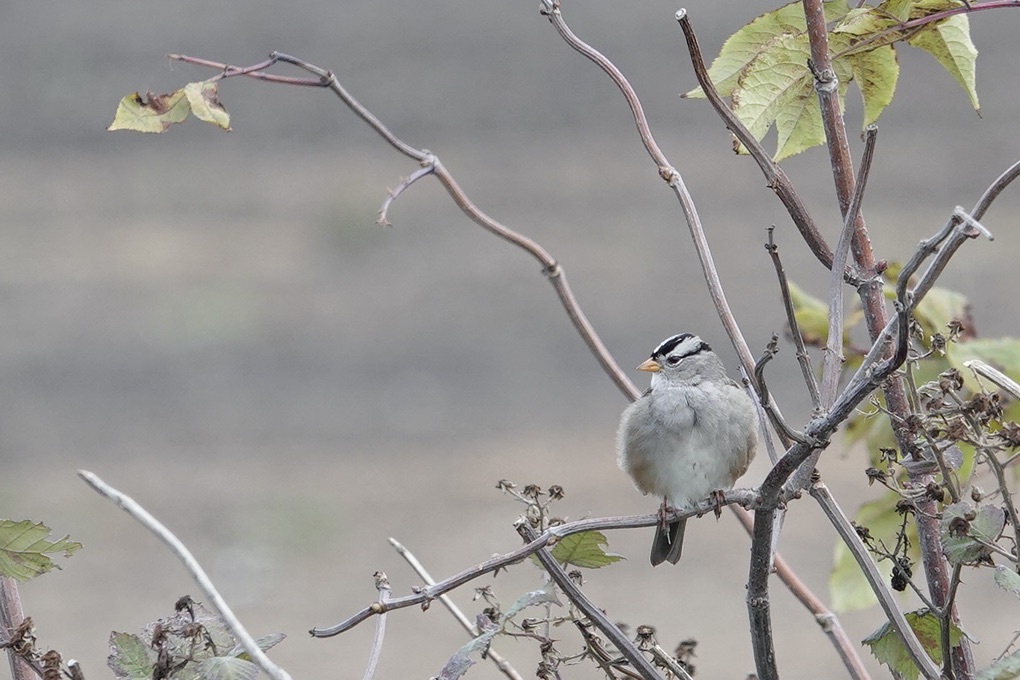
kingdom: Animalia
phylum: Chordata
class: Aves
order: Passeriformes
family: Passerellidae
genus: Zonotrichia
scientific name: Zonotrichia leucophrys
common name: White-crowned sparrow
